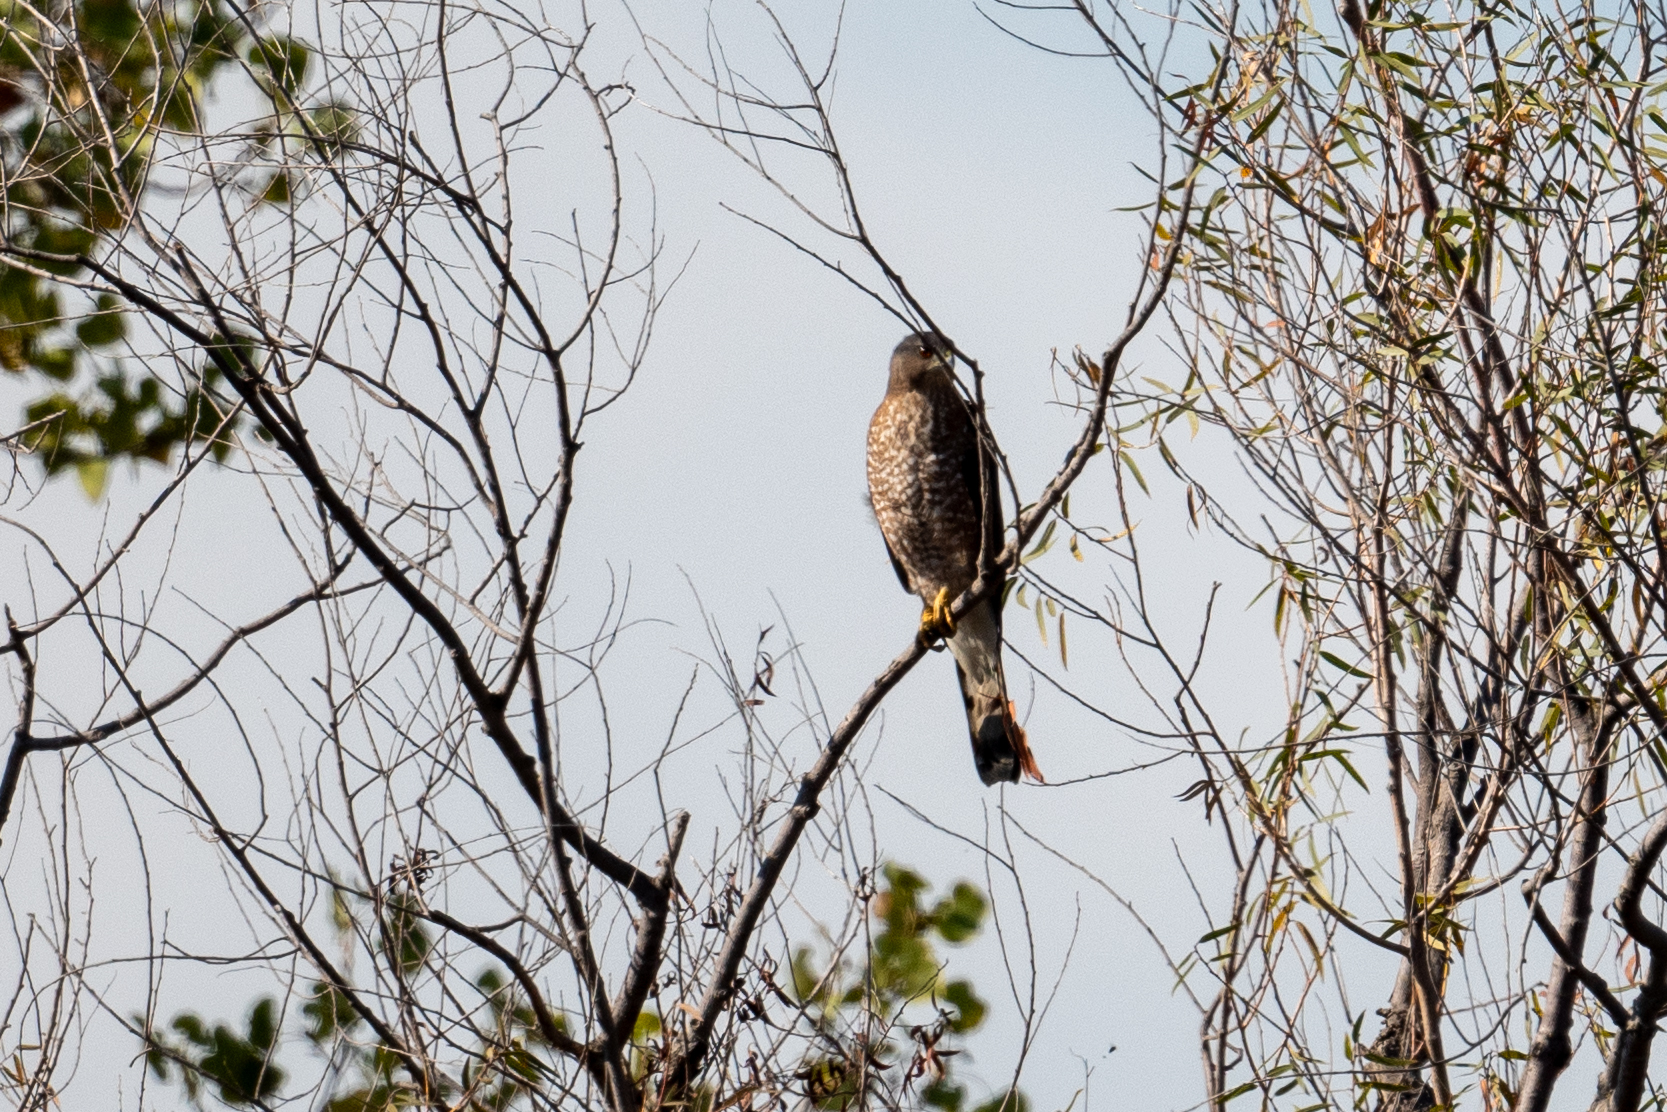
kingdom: Animalia
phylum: Chordata
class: Aves
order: Accipitriformes
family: Accipitridae
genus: Accipiter
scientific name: Accipiter cooperii
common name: Cooper's hawk
